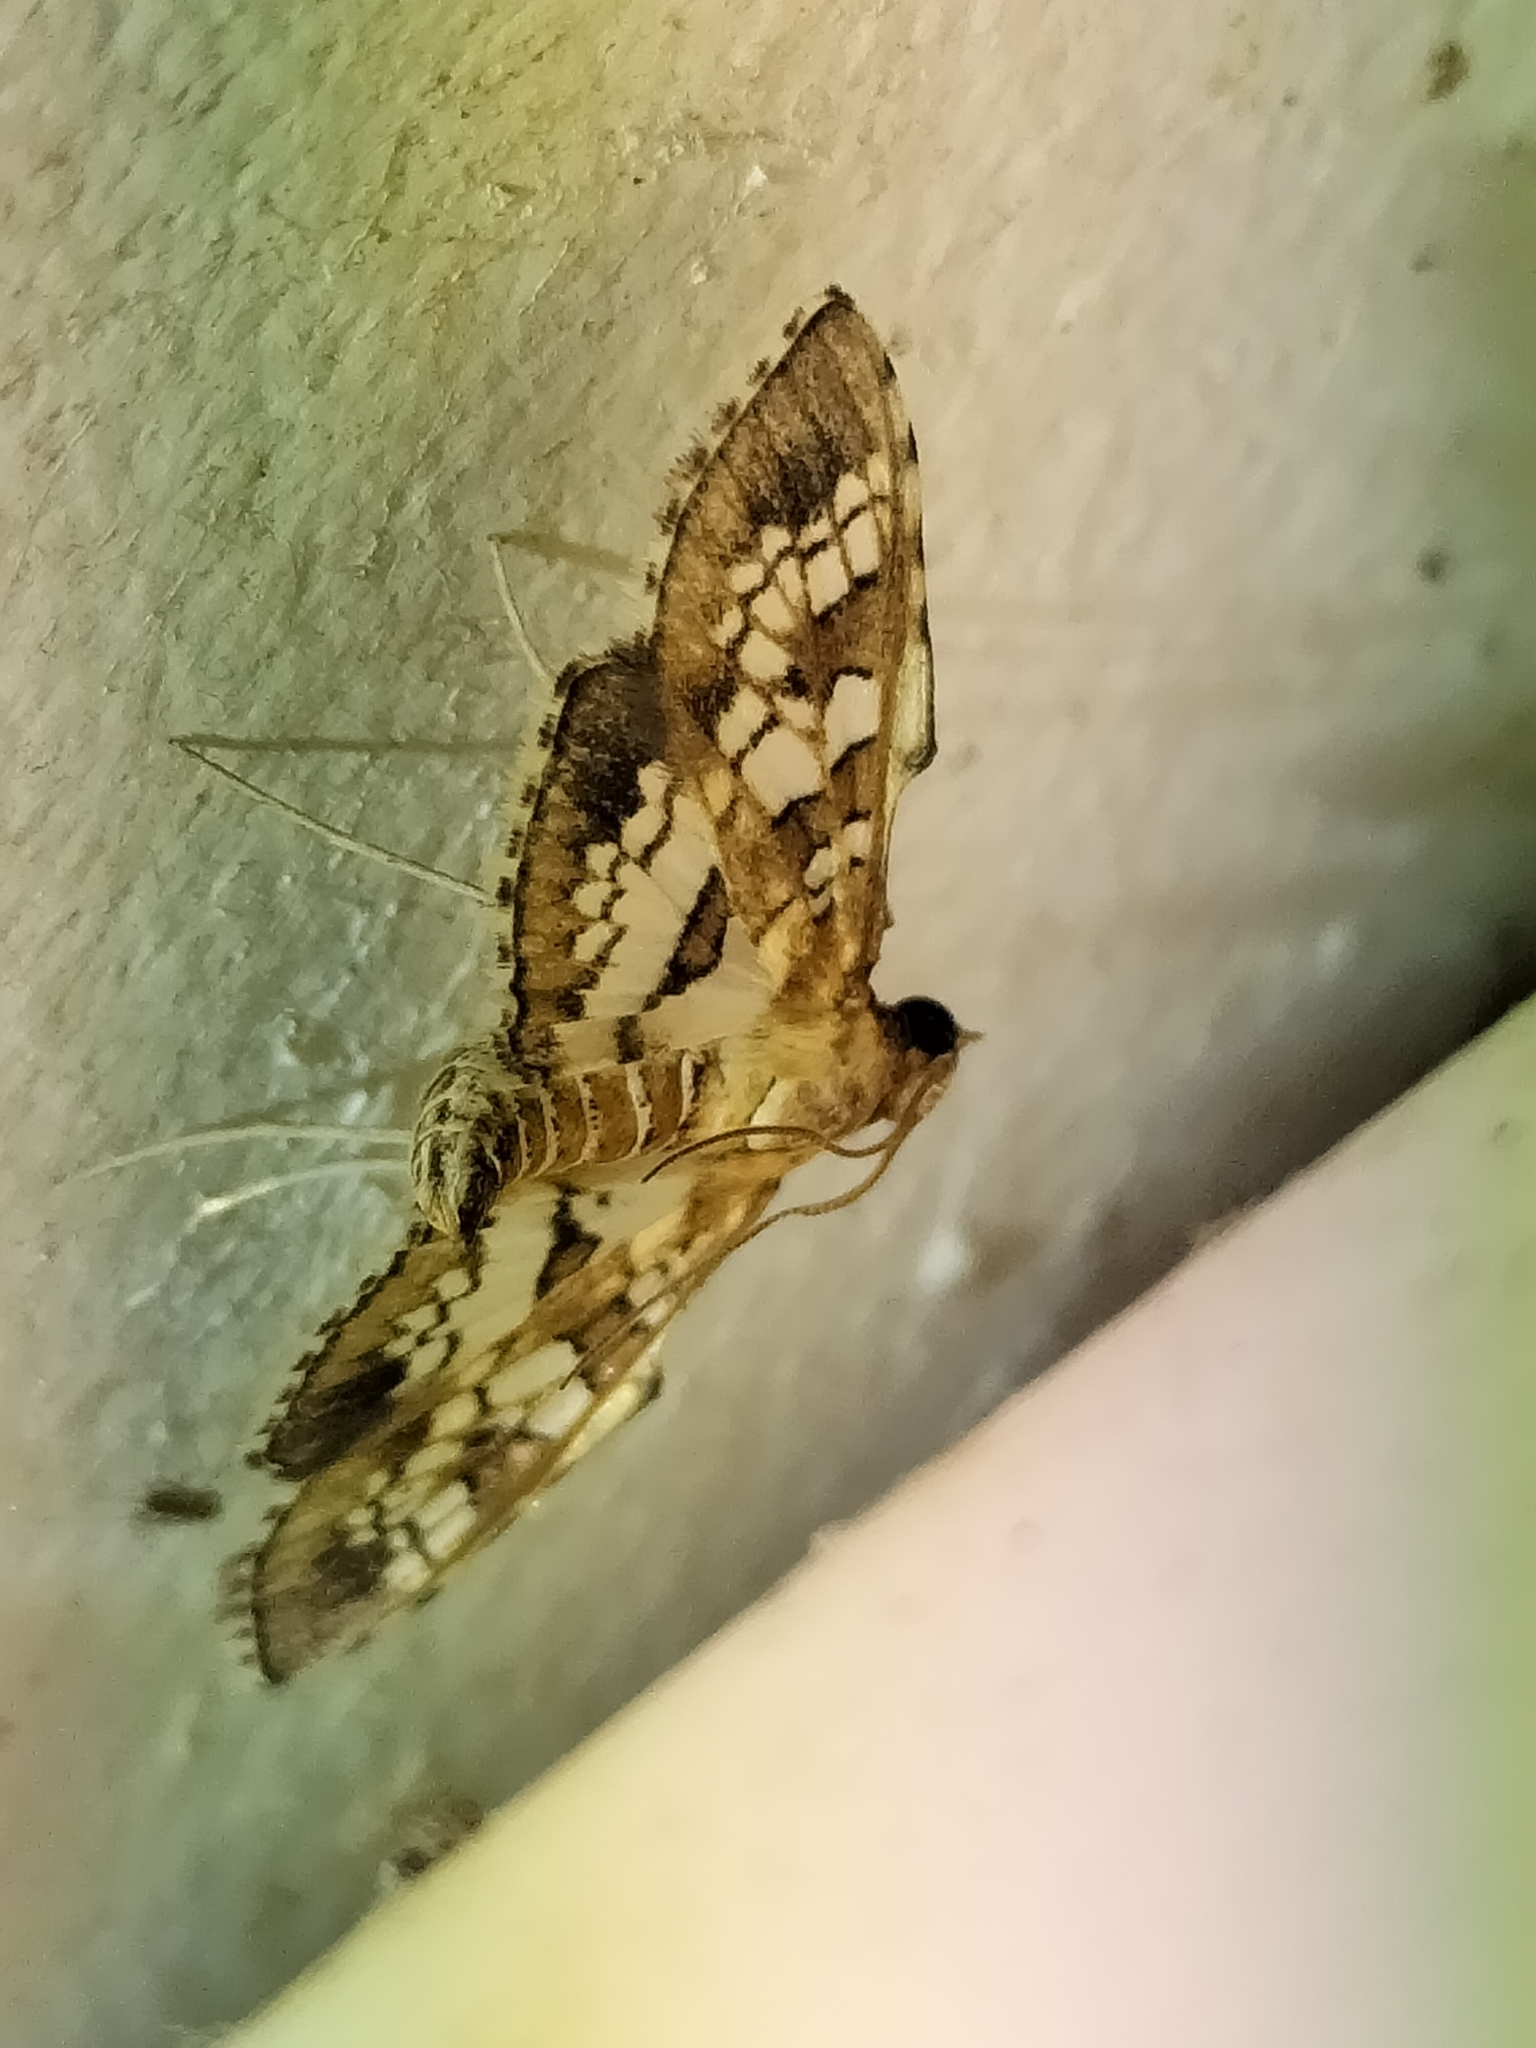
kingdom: Animalia
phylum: Arthropoda
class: Insecta
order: Lepidoptera
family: Crambidae
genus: Sameodes
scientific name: Sameodes cancellalis
